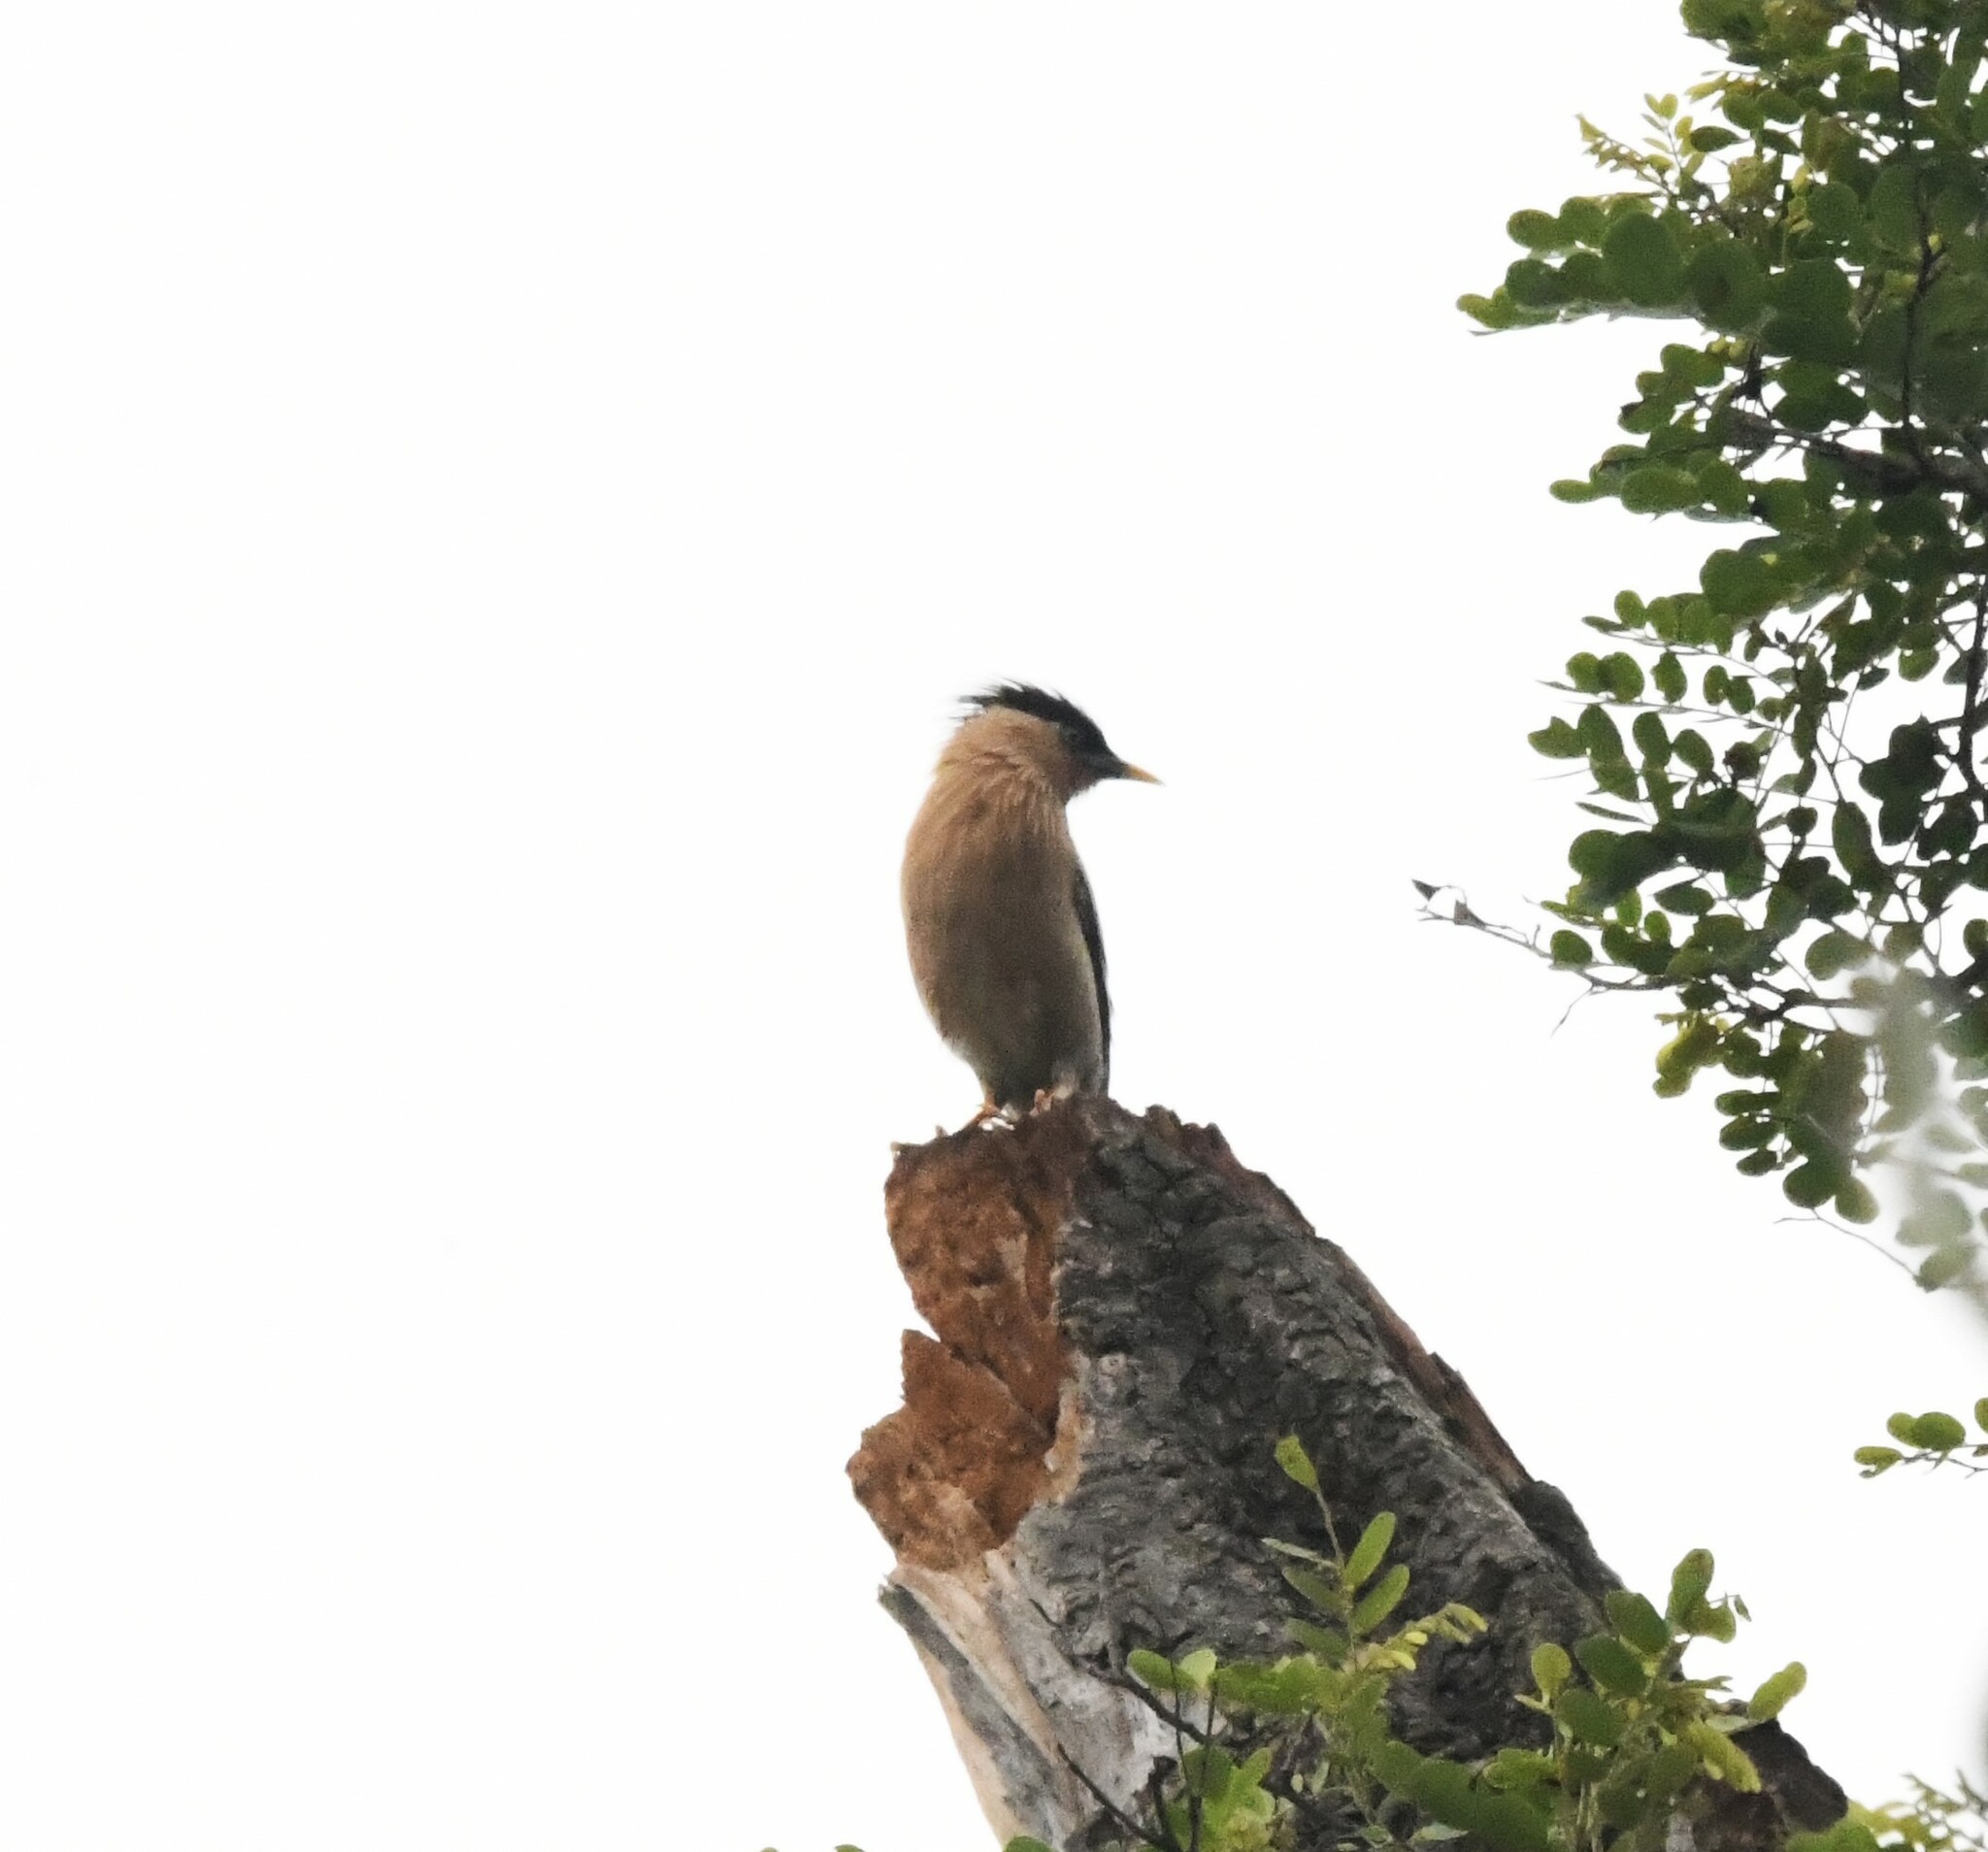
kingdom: Animalia
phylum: Chordata
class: Aves
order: Passeriformes
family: Sturnidae
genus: Sturnia
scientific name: Sturnia pagodarum
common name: Brahminy starling
